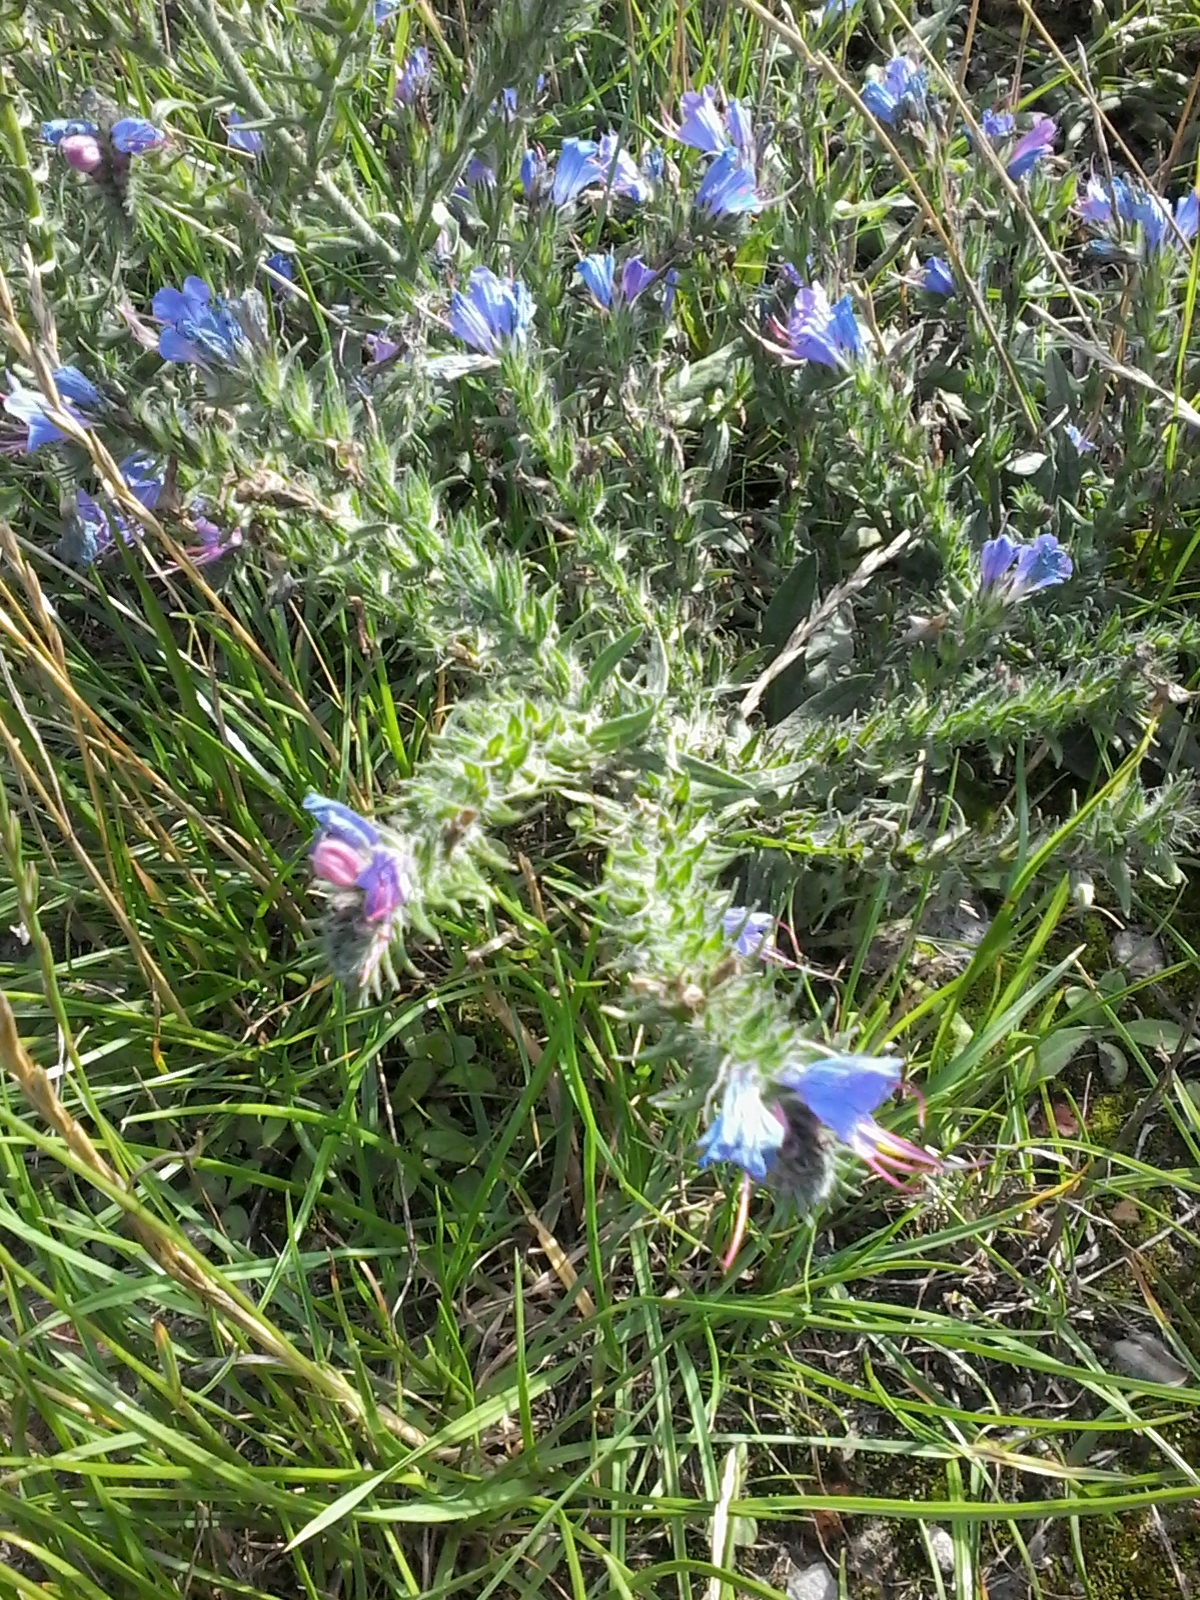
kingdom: Plantae
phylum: Tracheophyta
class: Magnoliopsida
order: Boraginales
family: Boraginaceae
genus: Echium
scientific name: Echium vulgare
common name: Common viper's bugloss
